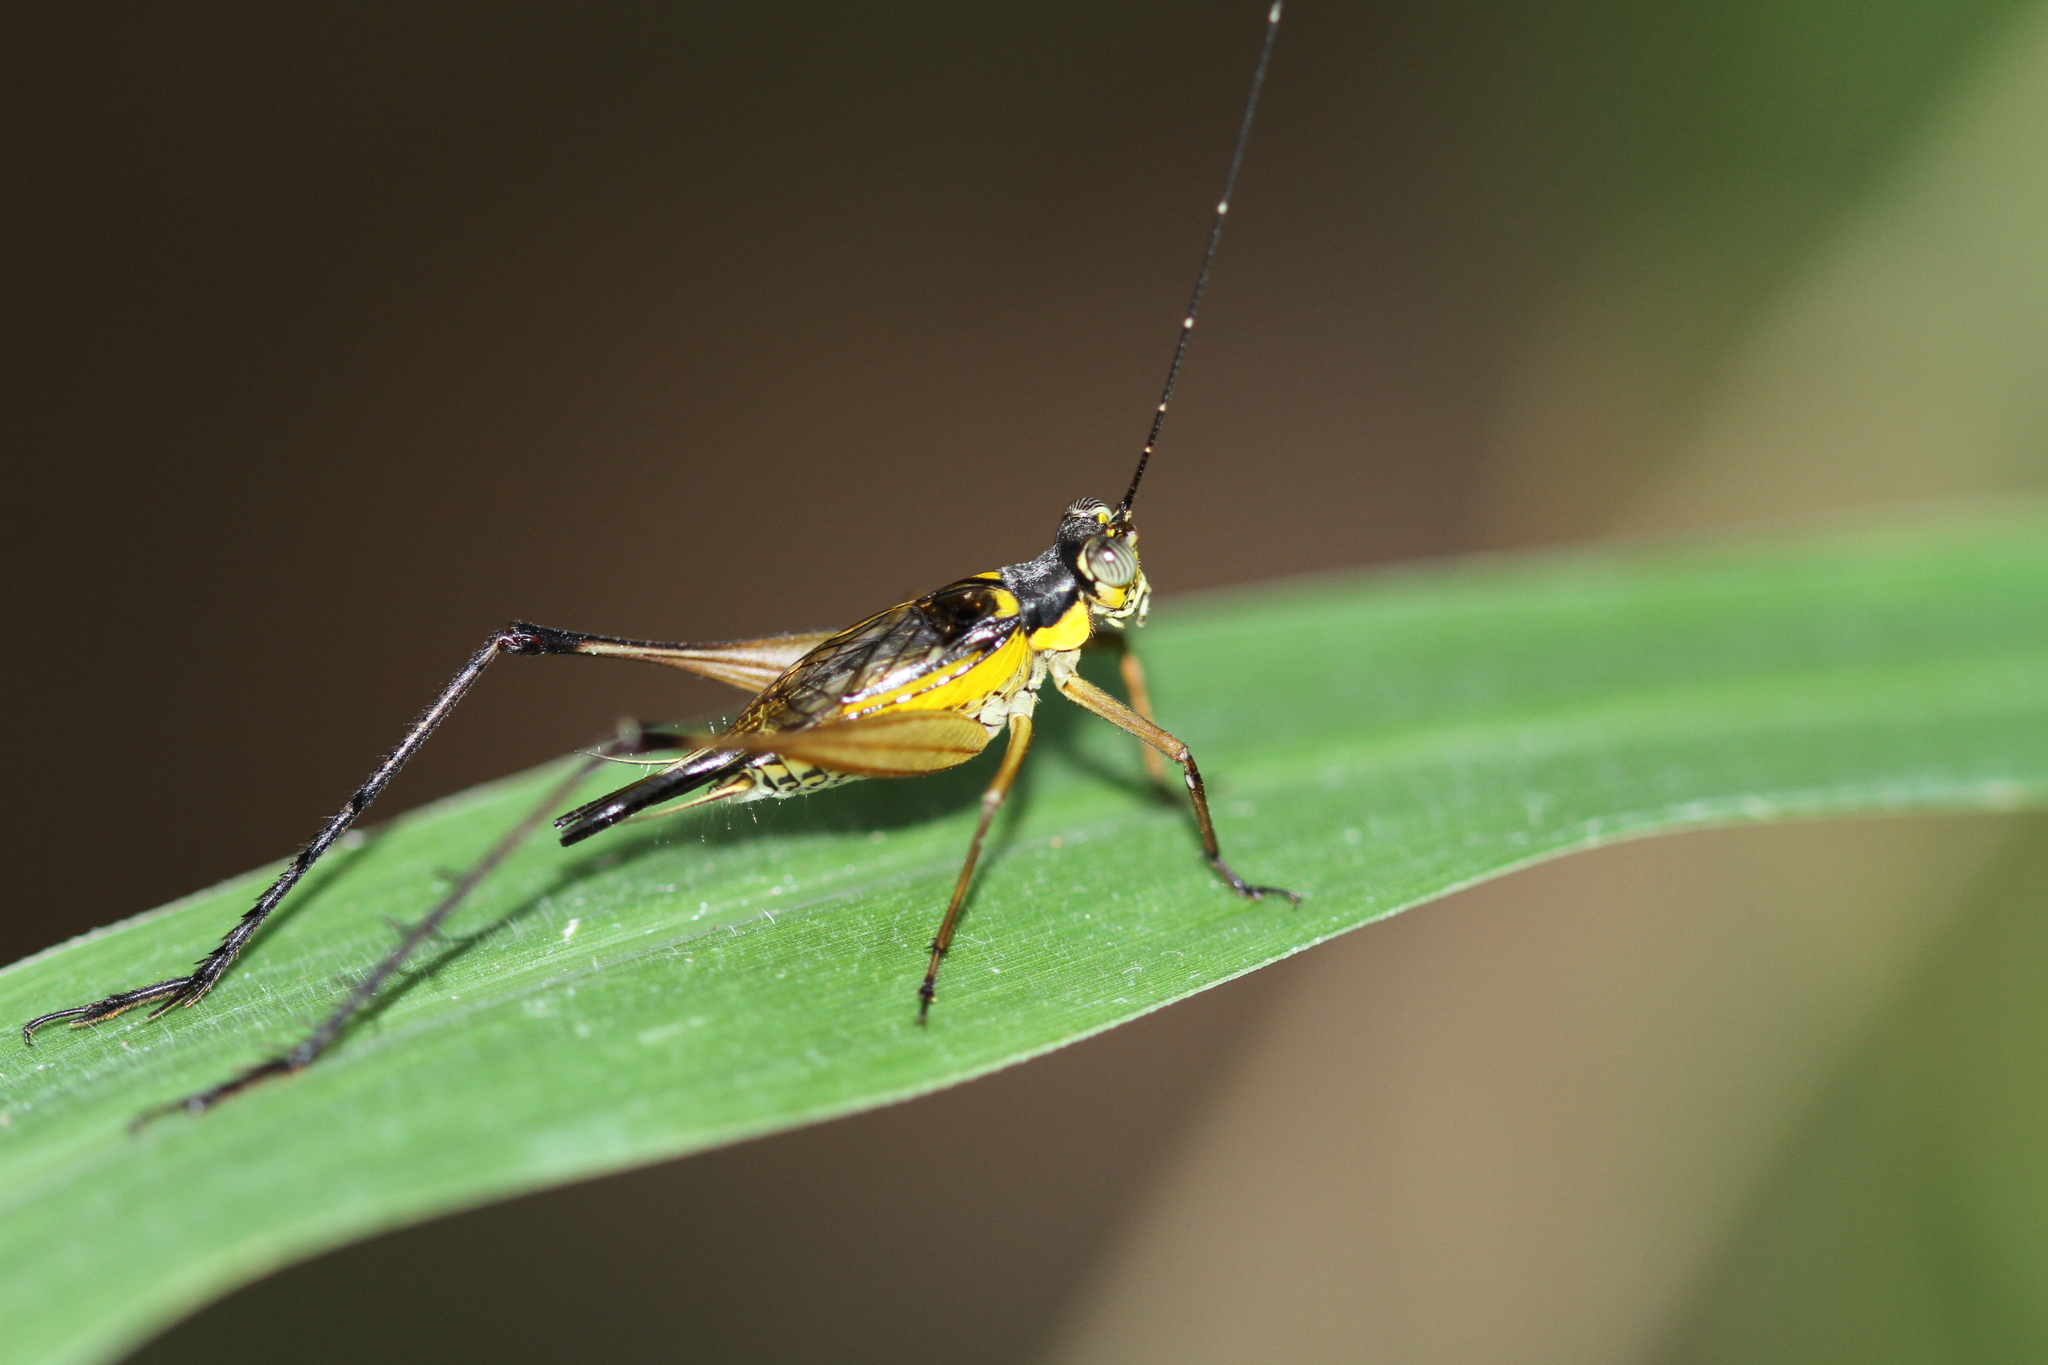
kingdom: Animalia
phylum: Arthropoda
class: Insecta
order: Orthoptera
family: Gryllidae
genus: Nisitrus
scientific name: Nisitrus vittatus
